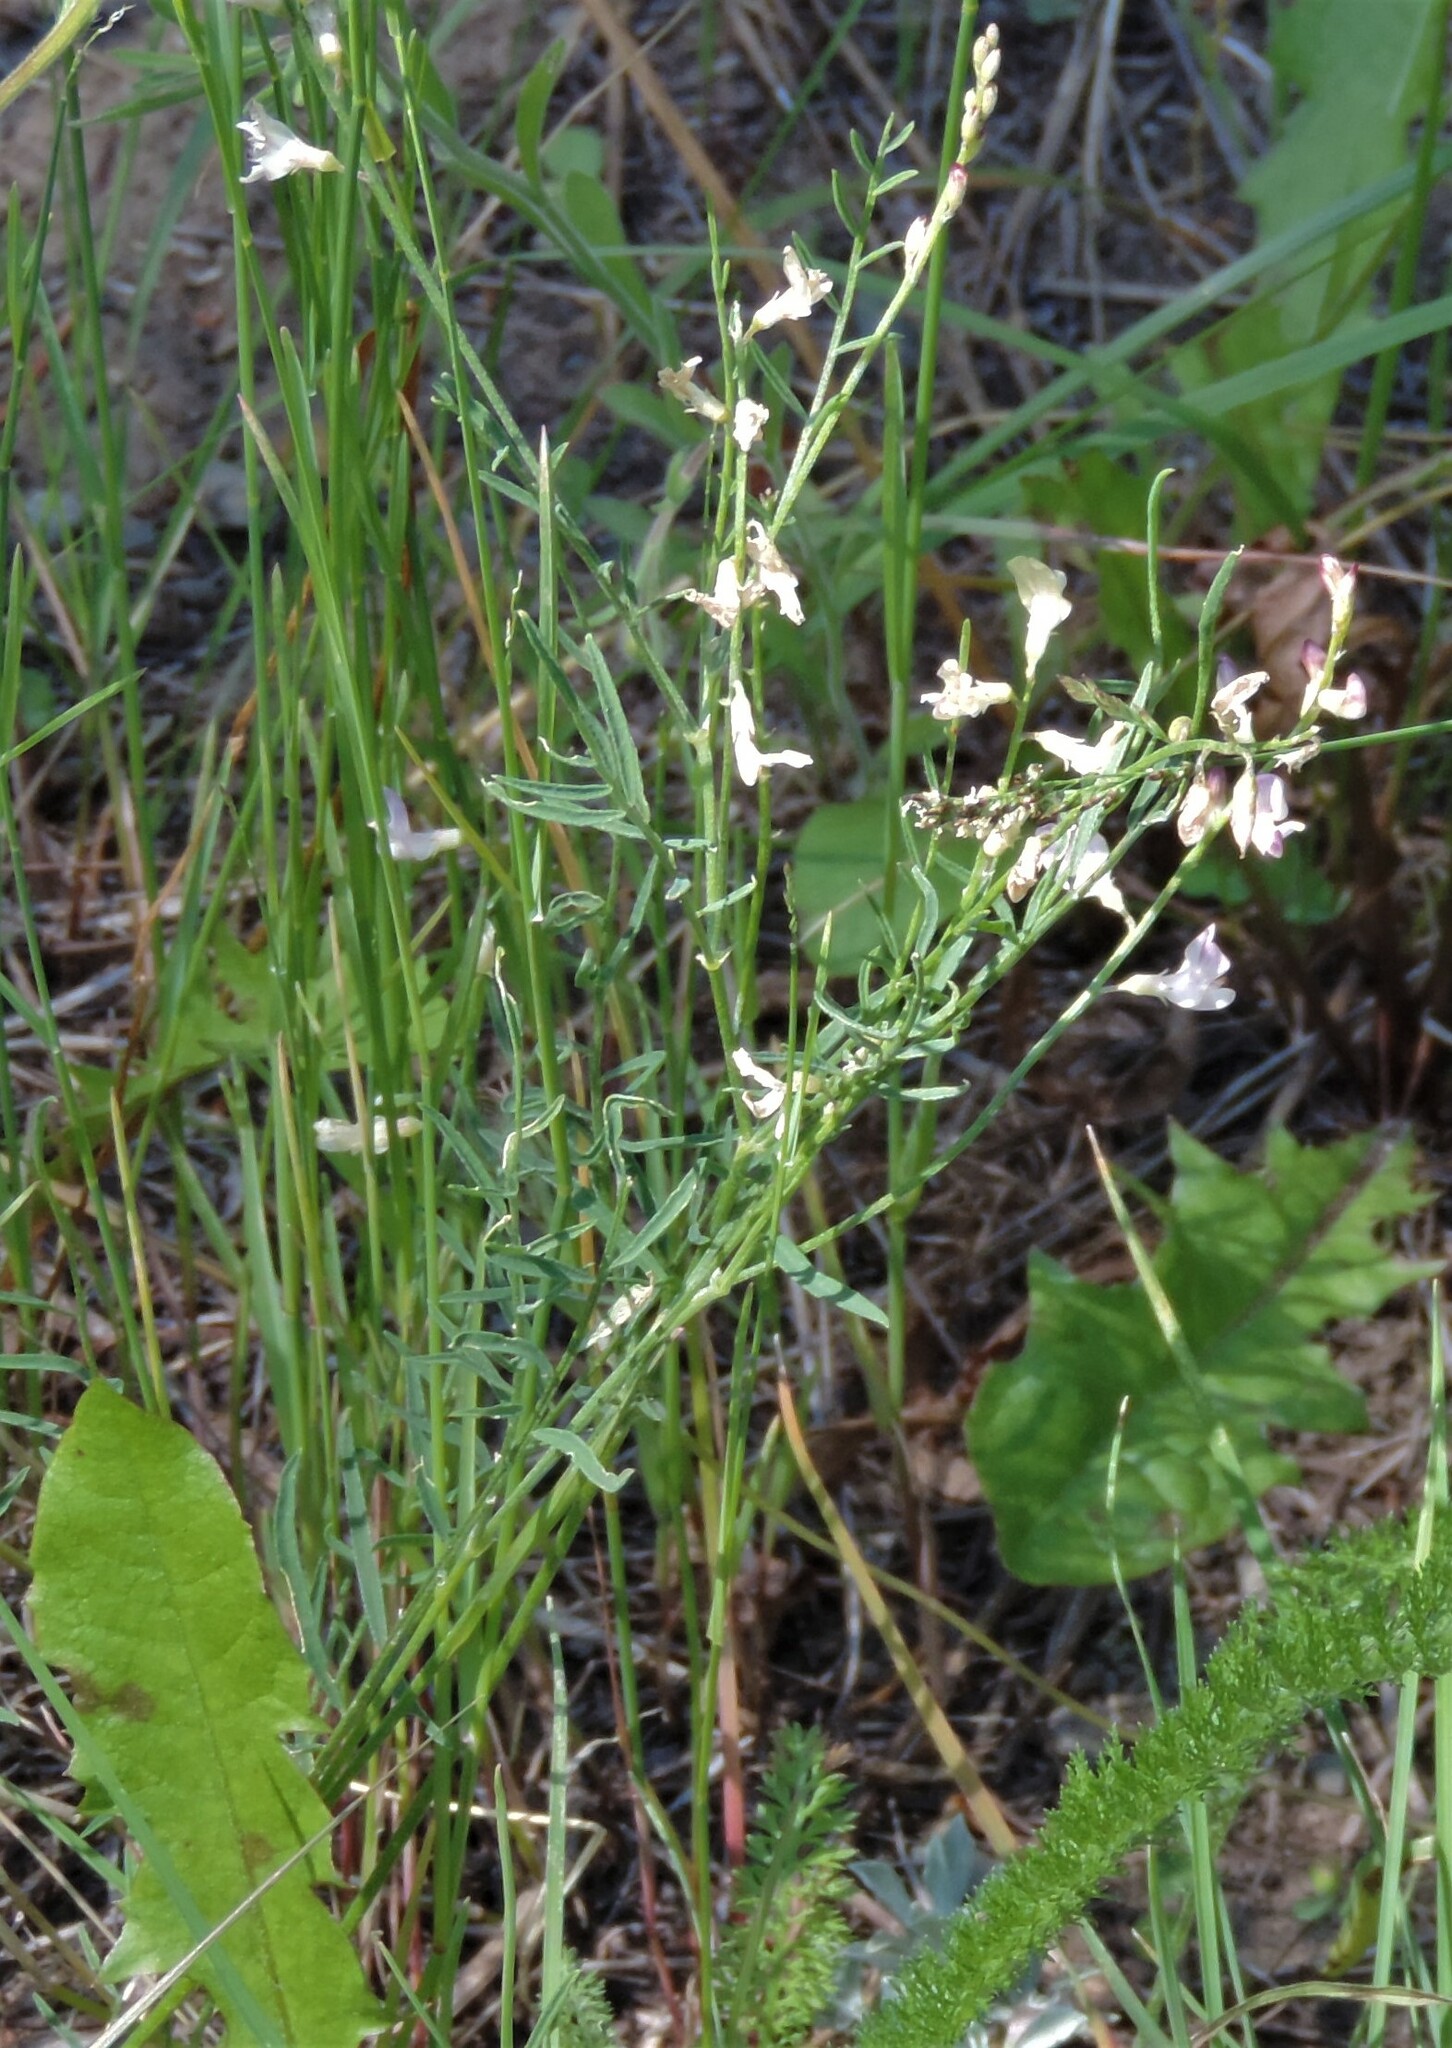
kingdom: Plantae
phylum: Tracheophyta
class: Magnoliopsida
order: Fabales
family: Fabaceae
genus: Astragalus
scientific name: Astragalus miser
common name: Timber milkvetch
